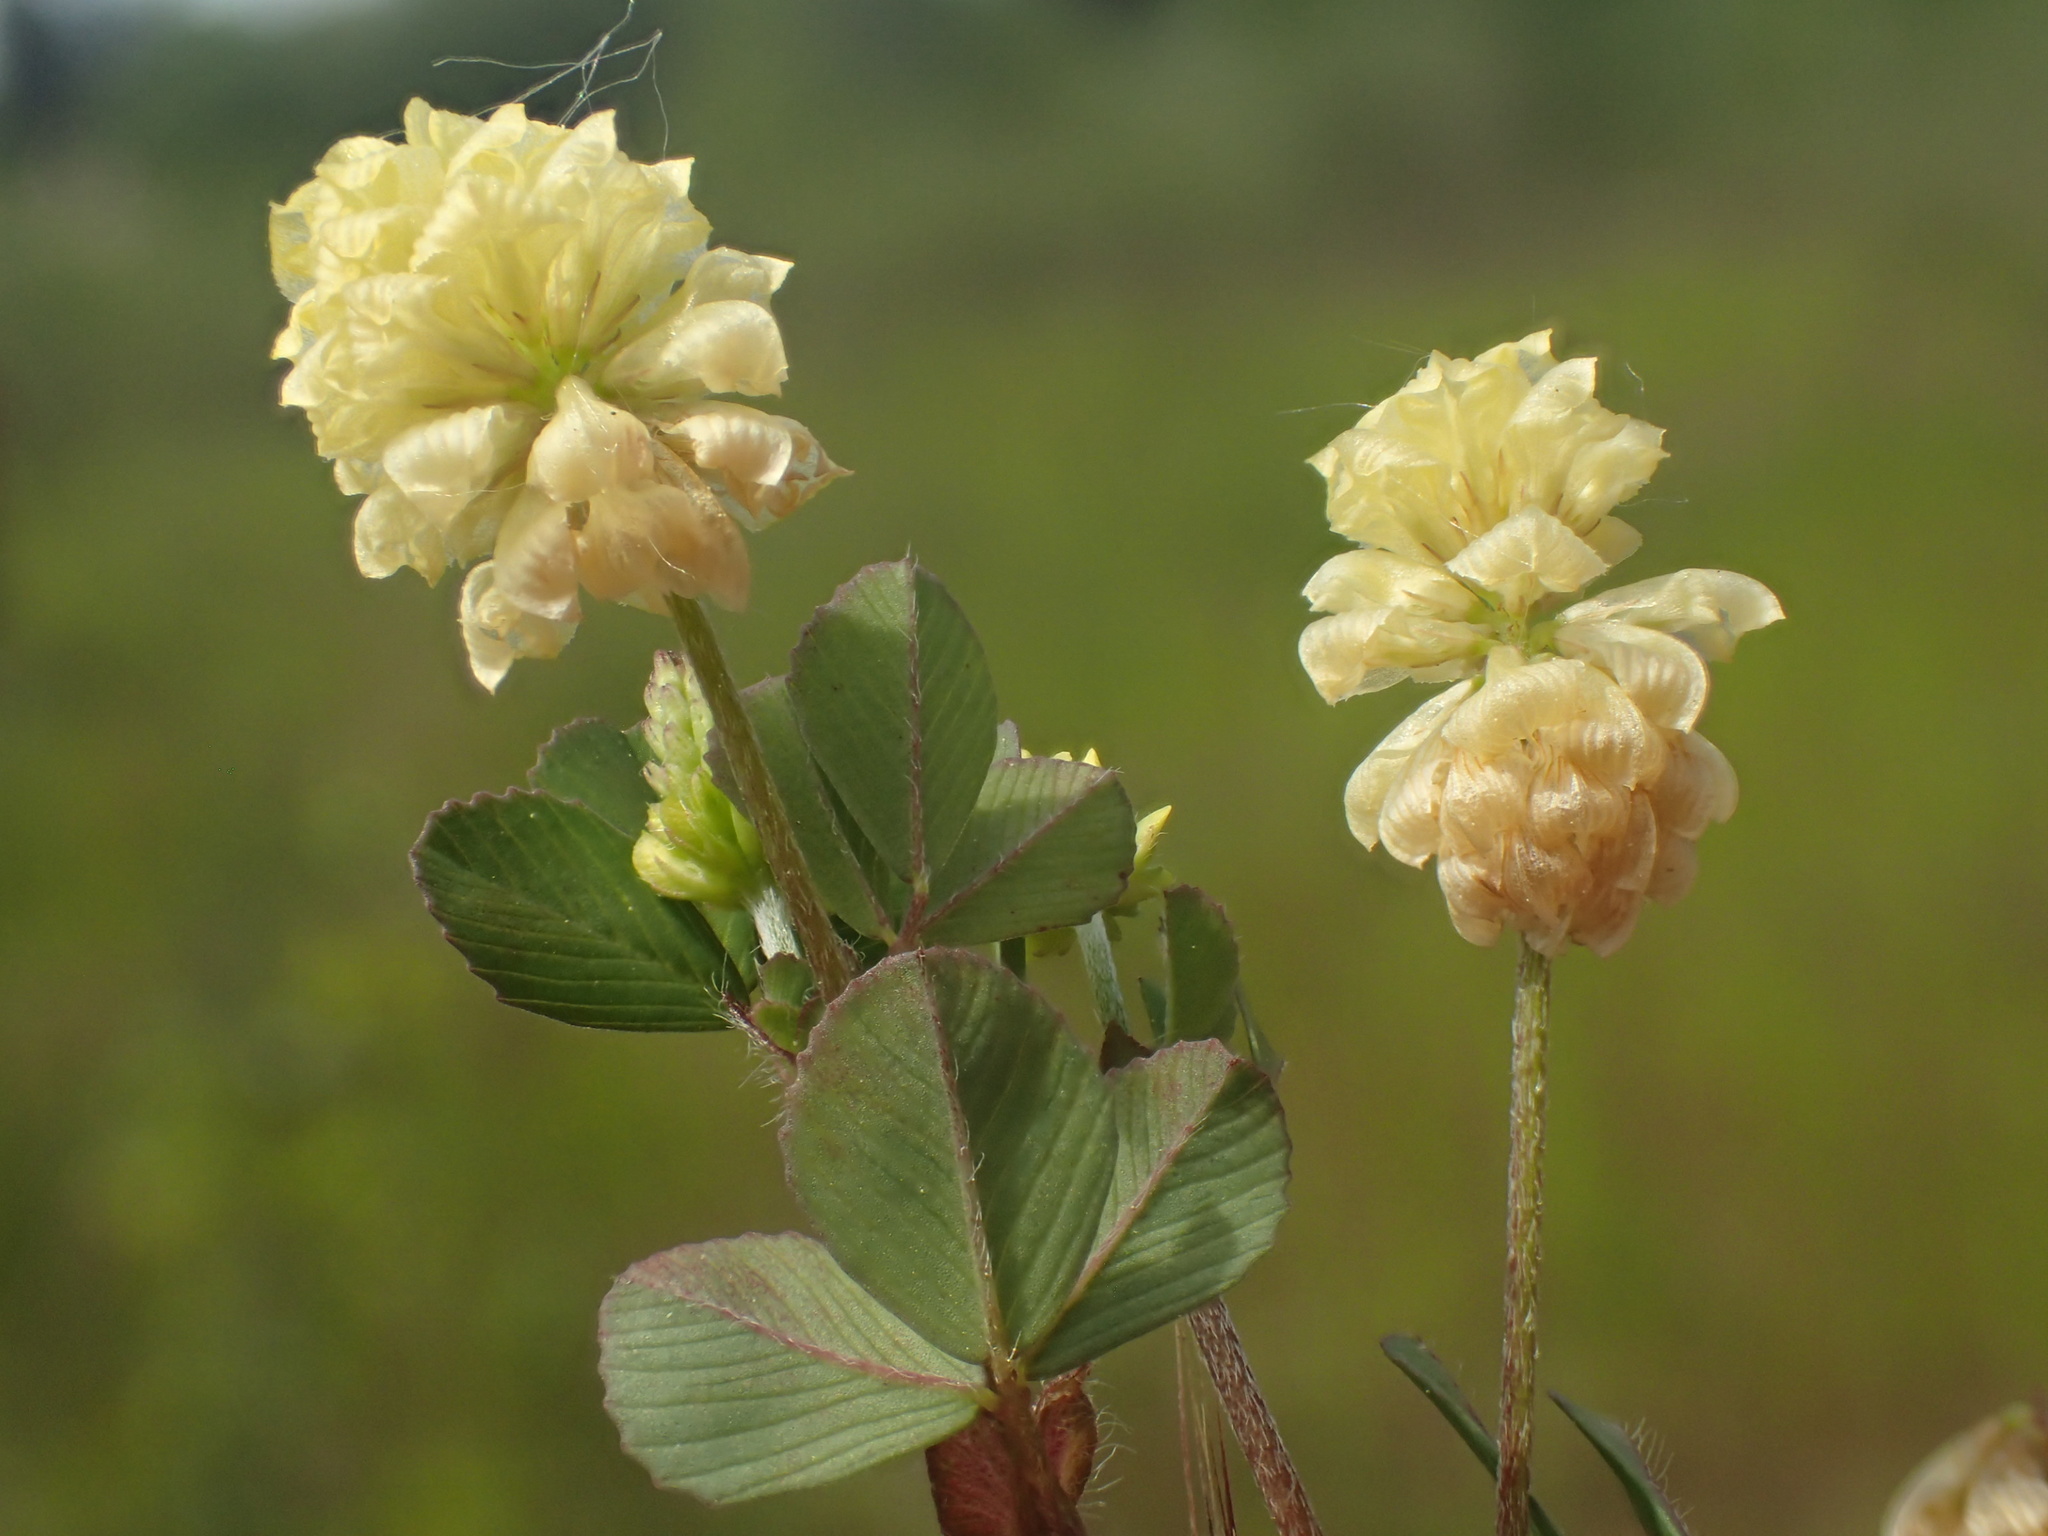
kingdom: Plantae
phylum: Tracheophyta
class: Magnoliopsida
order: Fabales
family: Fabaceae
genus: Trifolium
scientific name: Trifolium campestre
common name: Field clover
